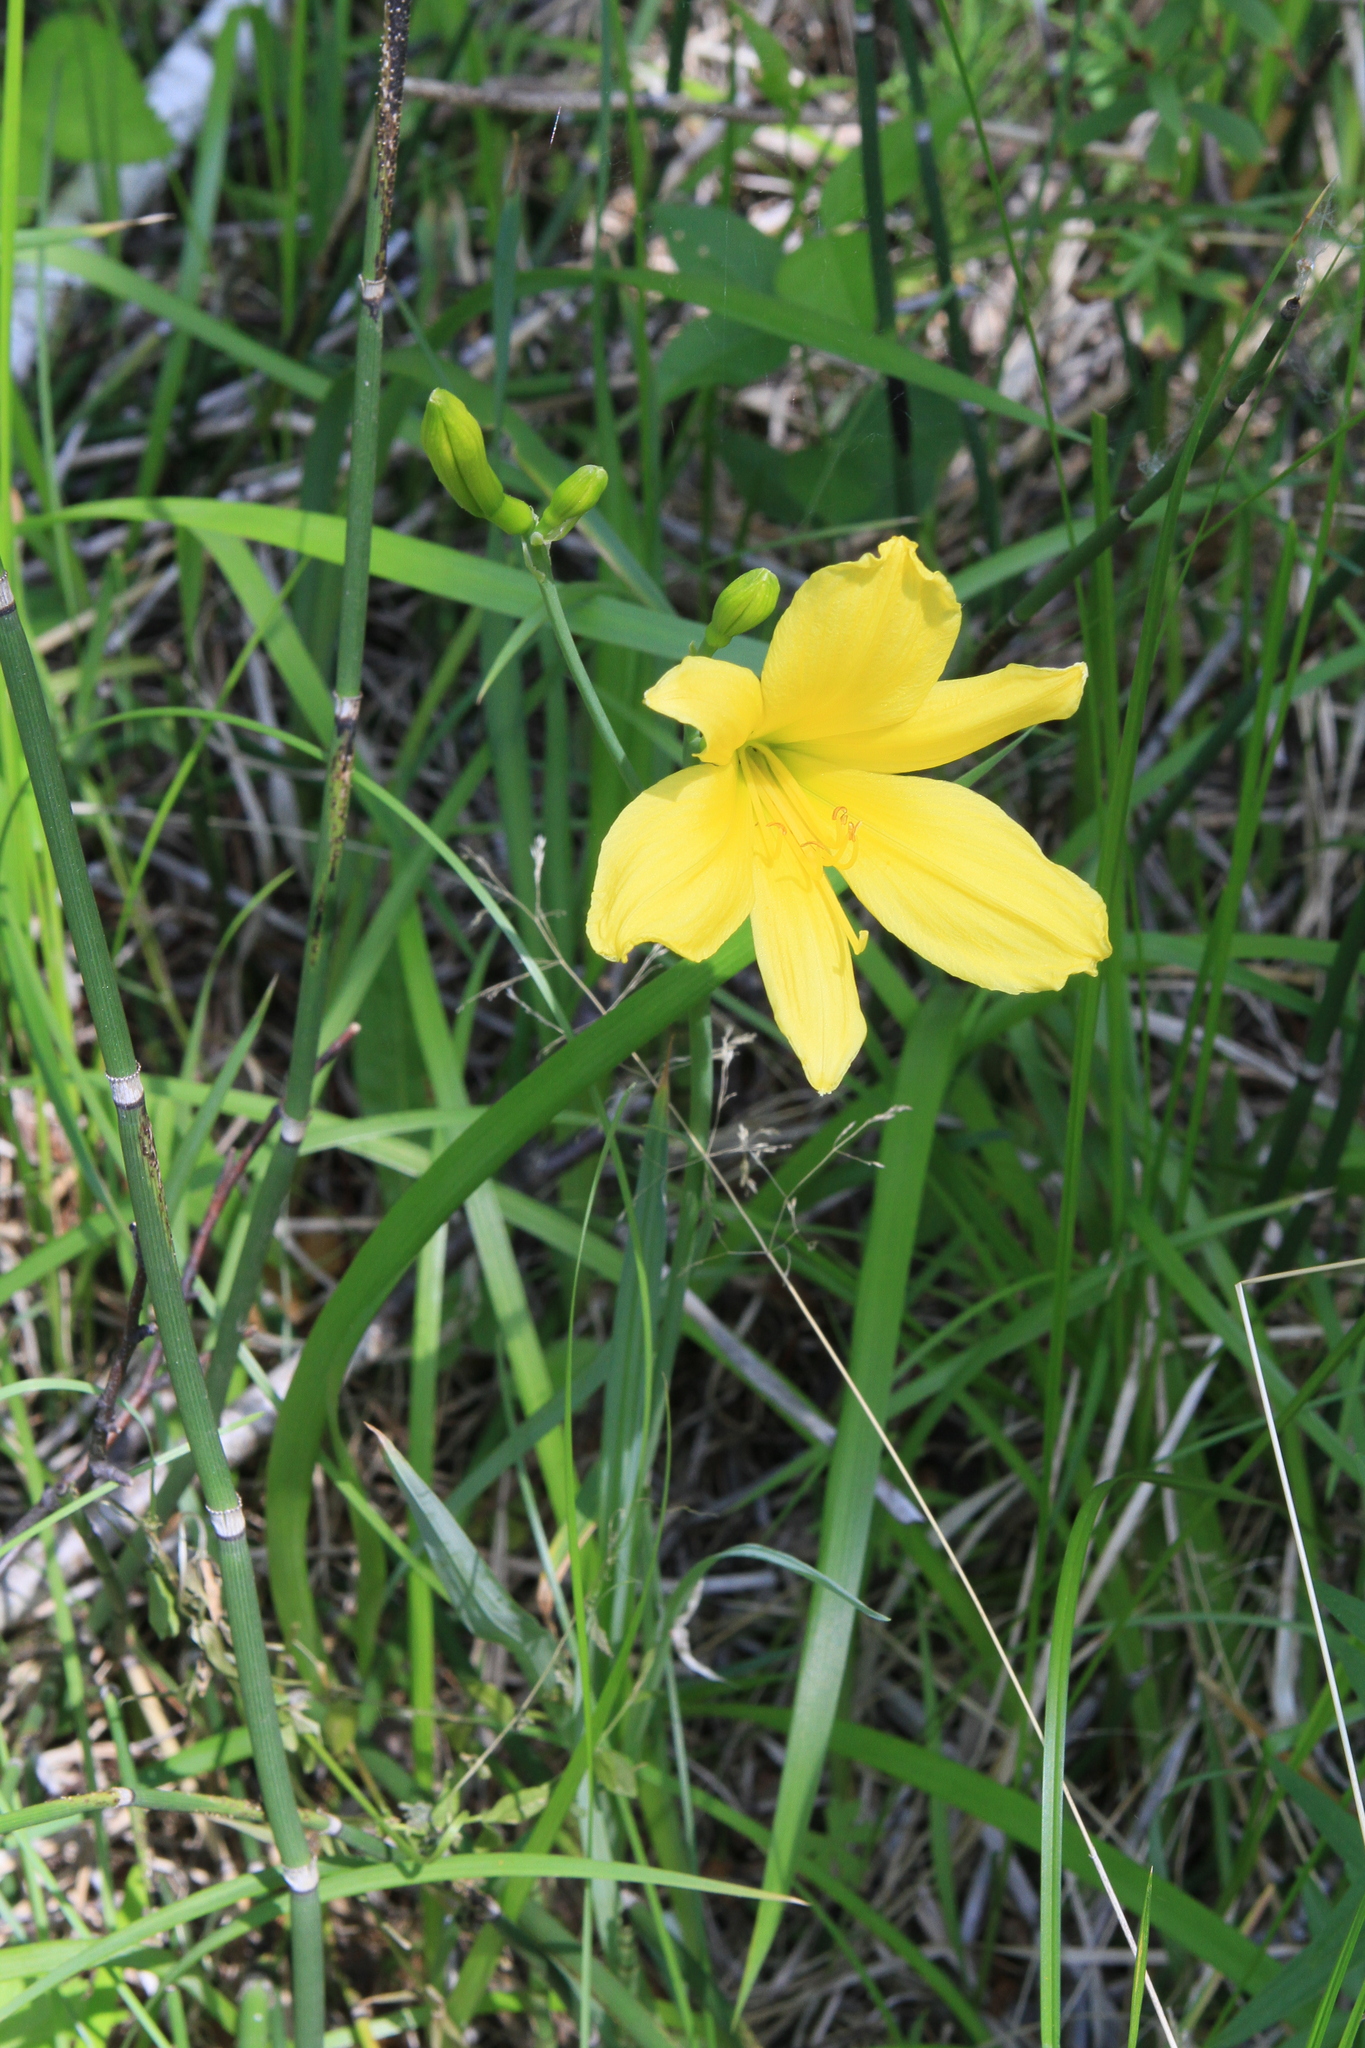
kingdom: Plantae
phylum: Tracheophyta
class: Liliopsida
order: Asparagales
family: Asphodelaceae
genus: Hemerocallis
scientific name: Hemerocallis minor
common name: Small daylily
